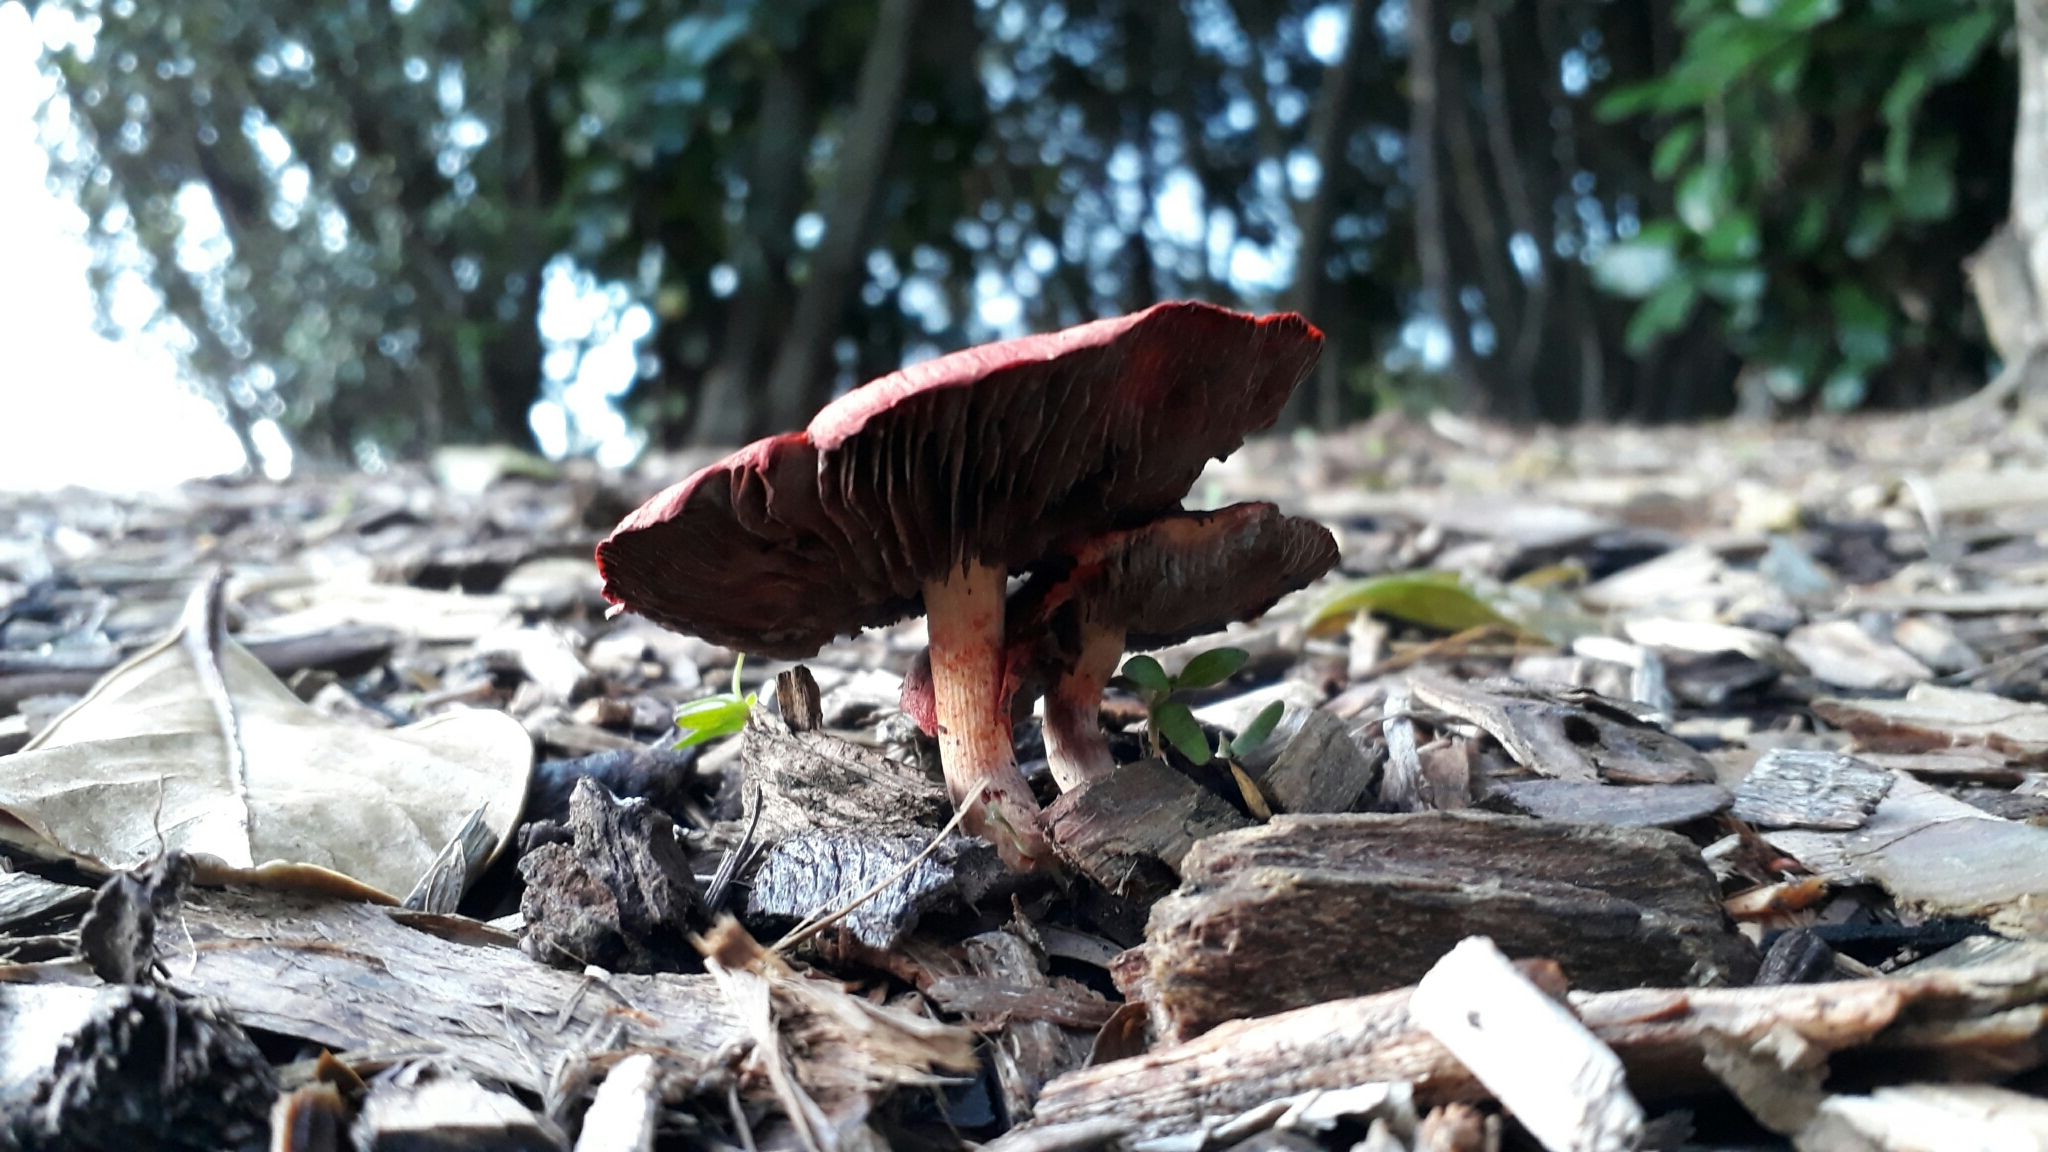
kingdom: Fungi
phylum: Basidiomycota
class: Agaricomycetes
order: Agaricales
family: Strophariaceae
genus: Leratiomyces
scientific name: Leratiomyces ceres
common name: Redlead roundhead
